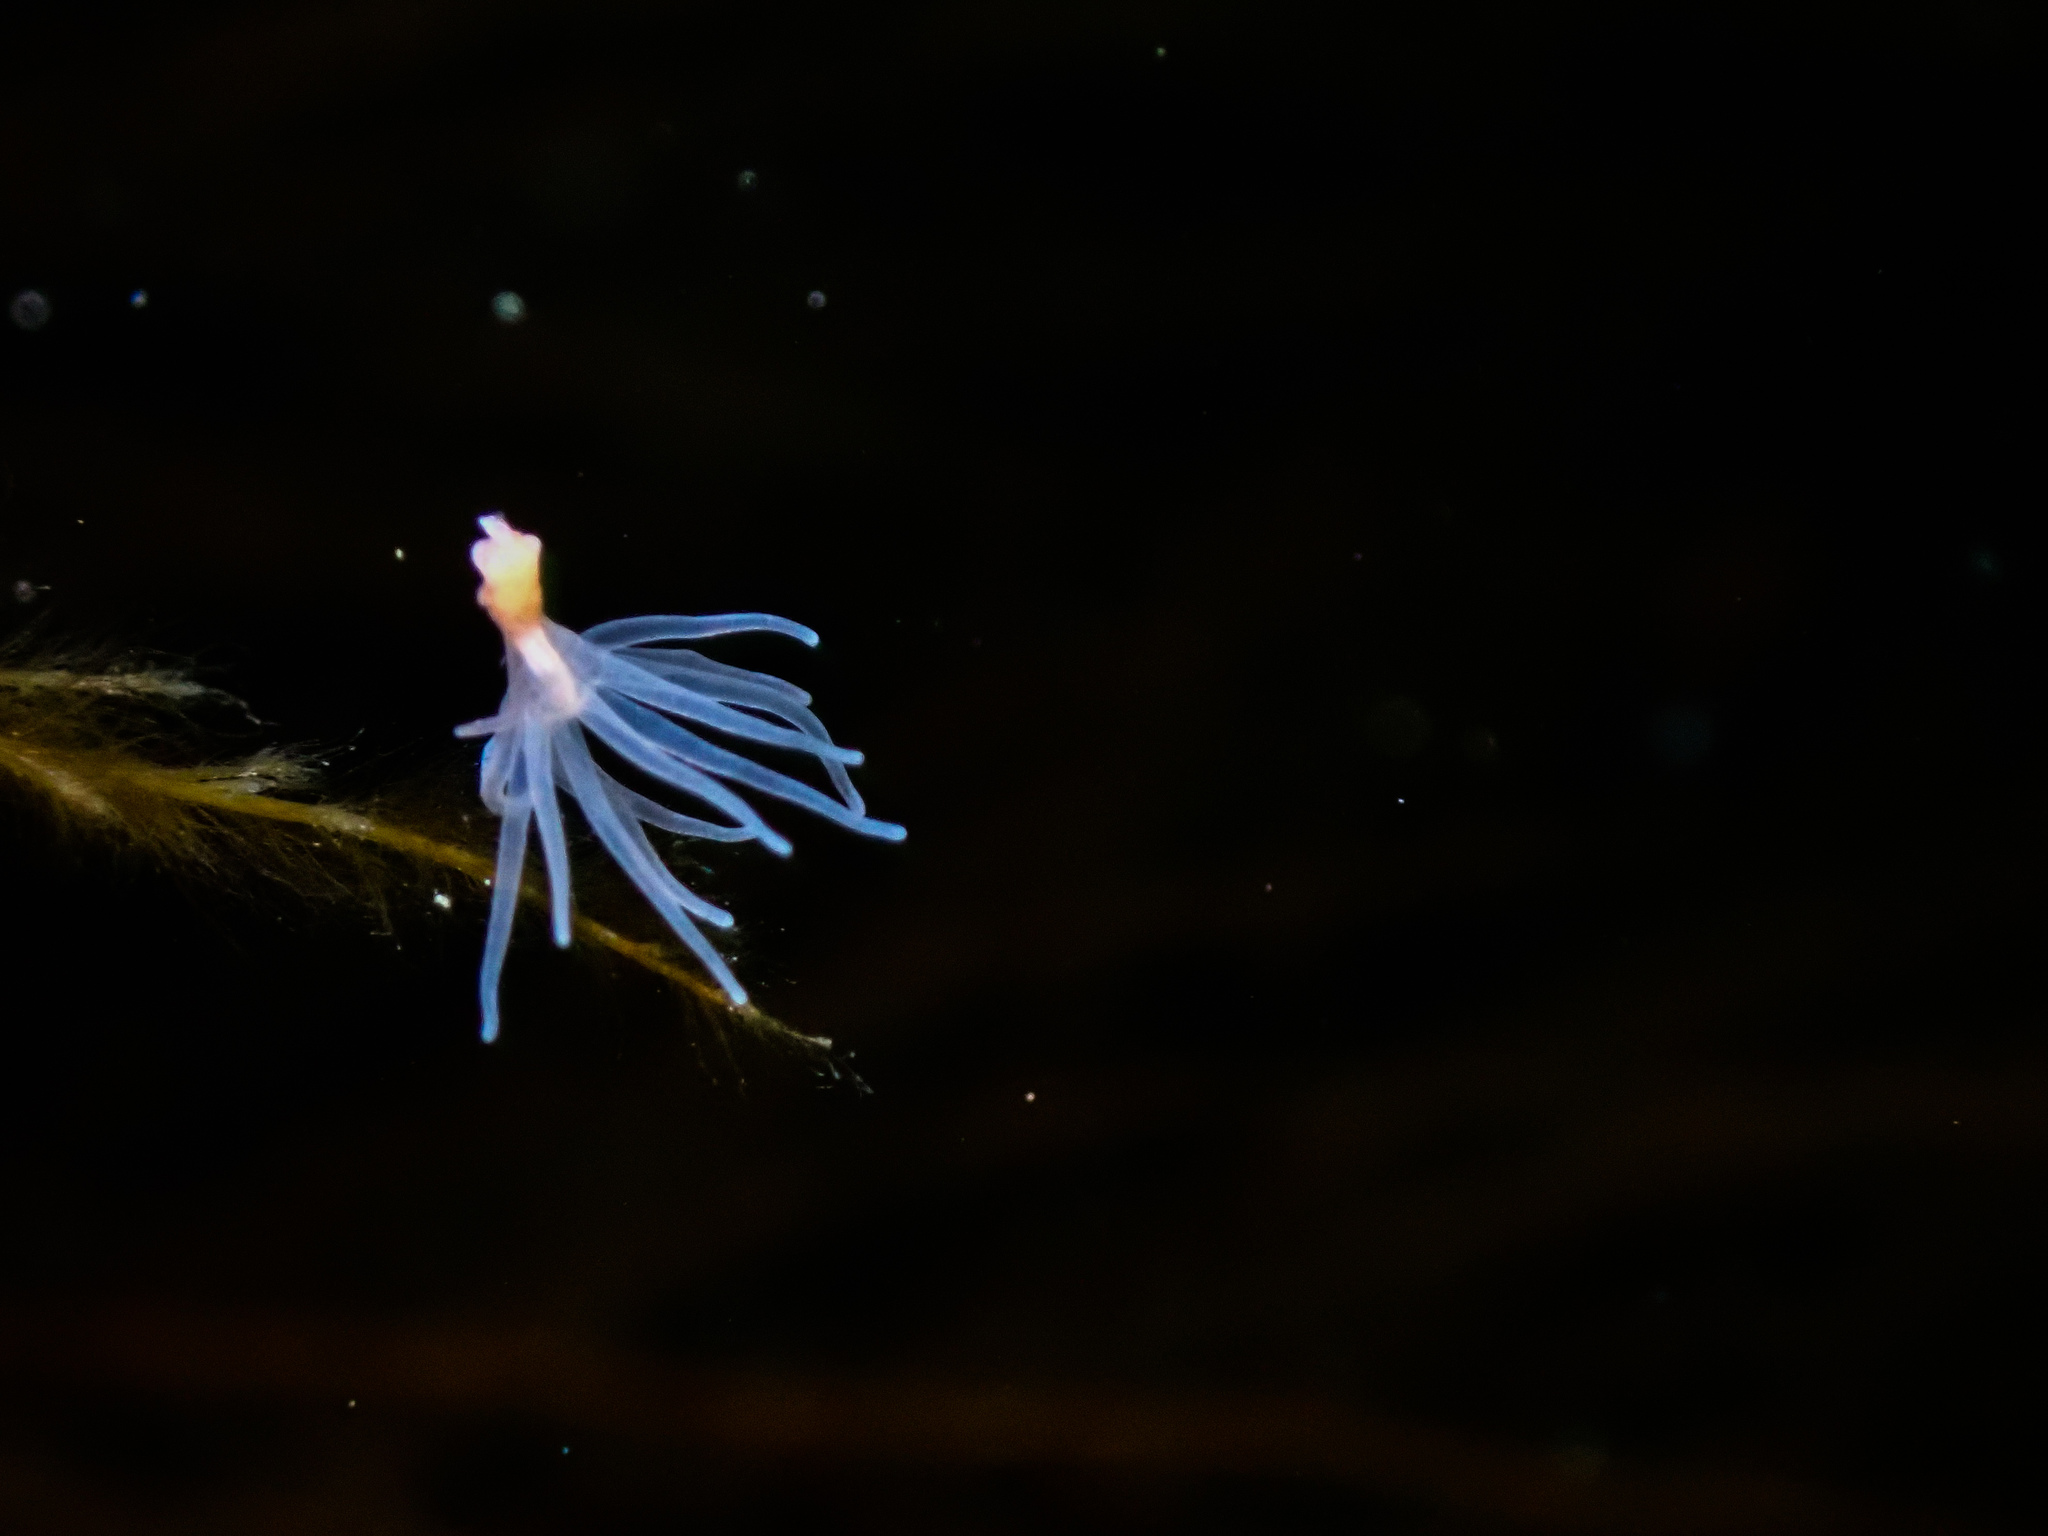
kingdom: Animalia
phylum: Cnidaria
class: Anthozoa
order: Actiniaria
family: Gonactiniidae
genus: Gonactinia
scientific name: Gonactinia prolifera
